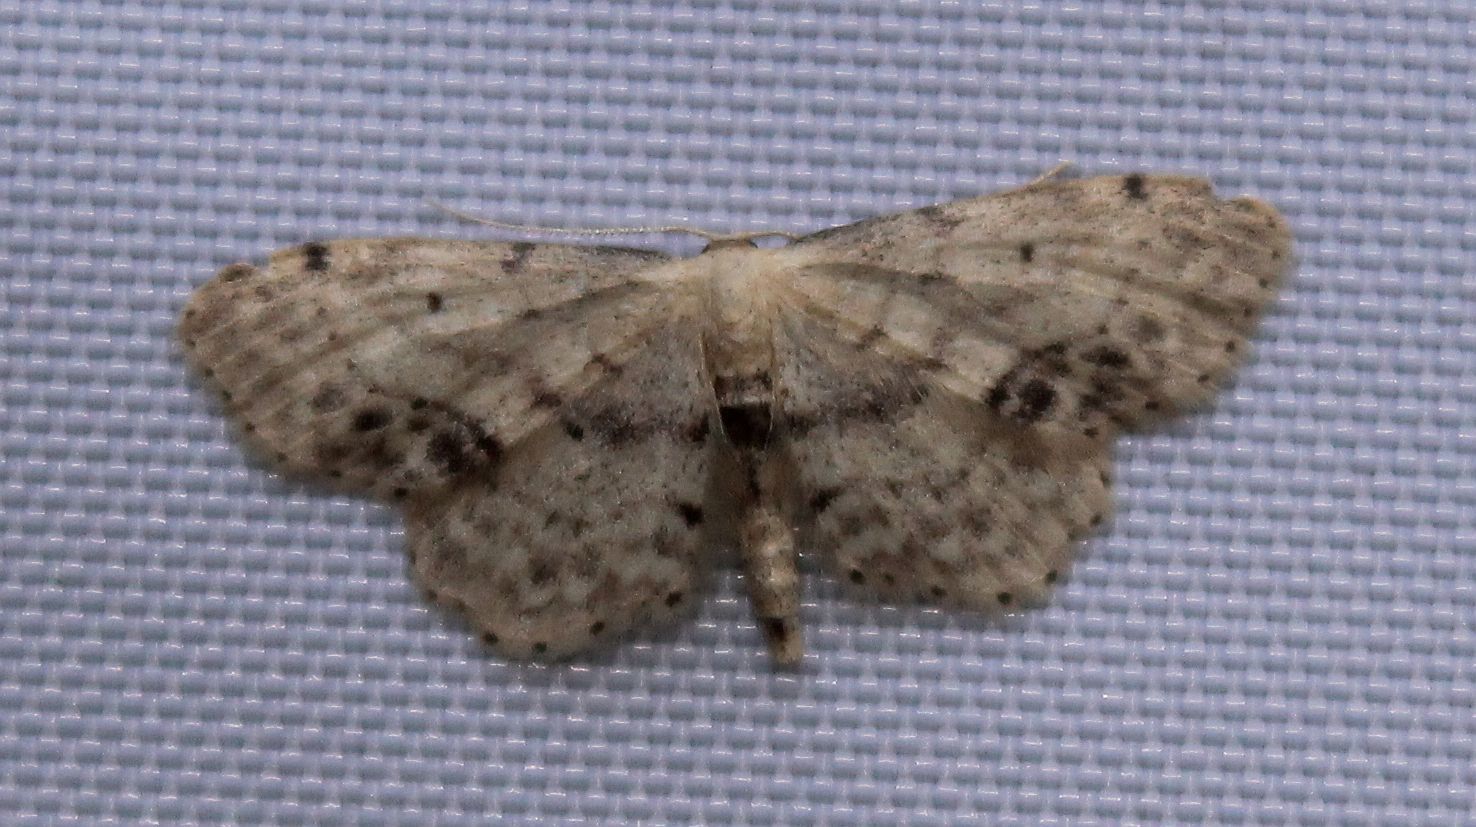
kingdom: Animalia
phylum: Arthropoda
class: Insecta
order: Lepidoptera
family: Geometridae
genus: Idaea
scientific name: Idaea dimidiata
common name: Single-dotted wave
